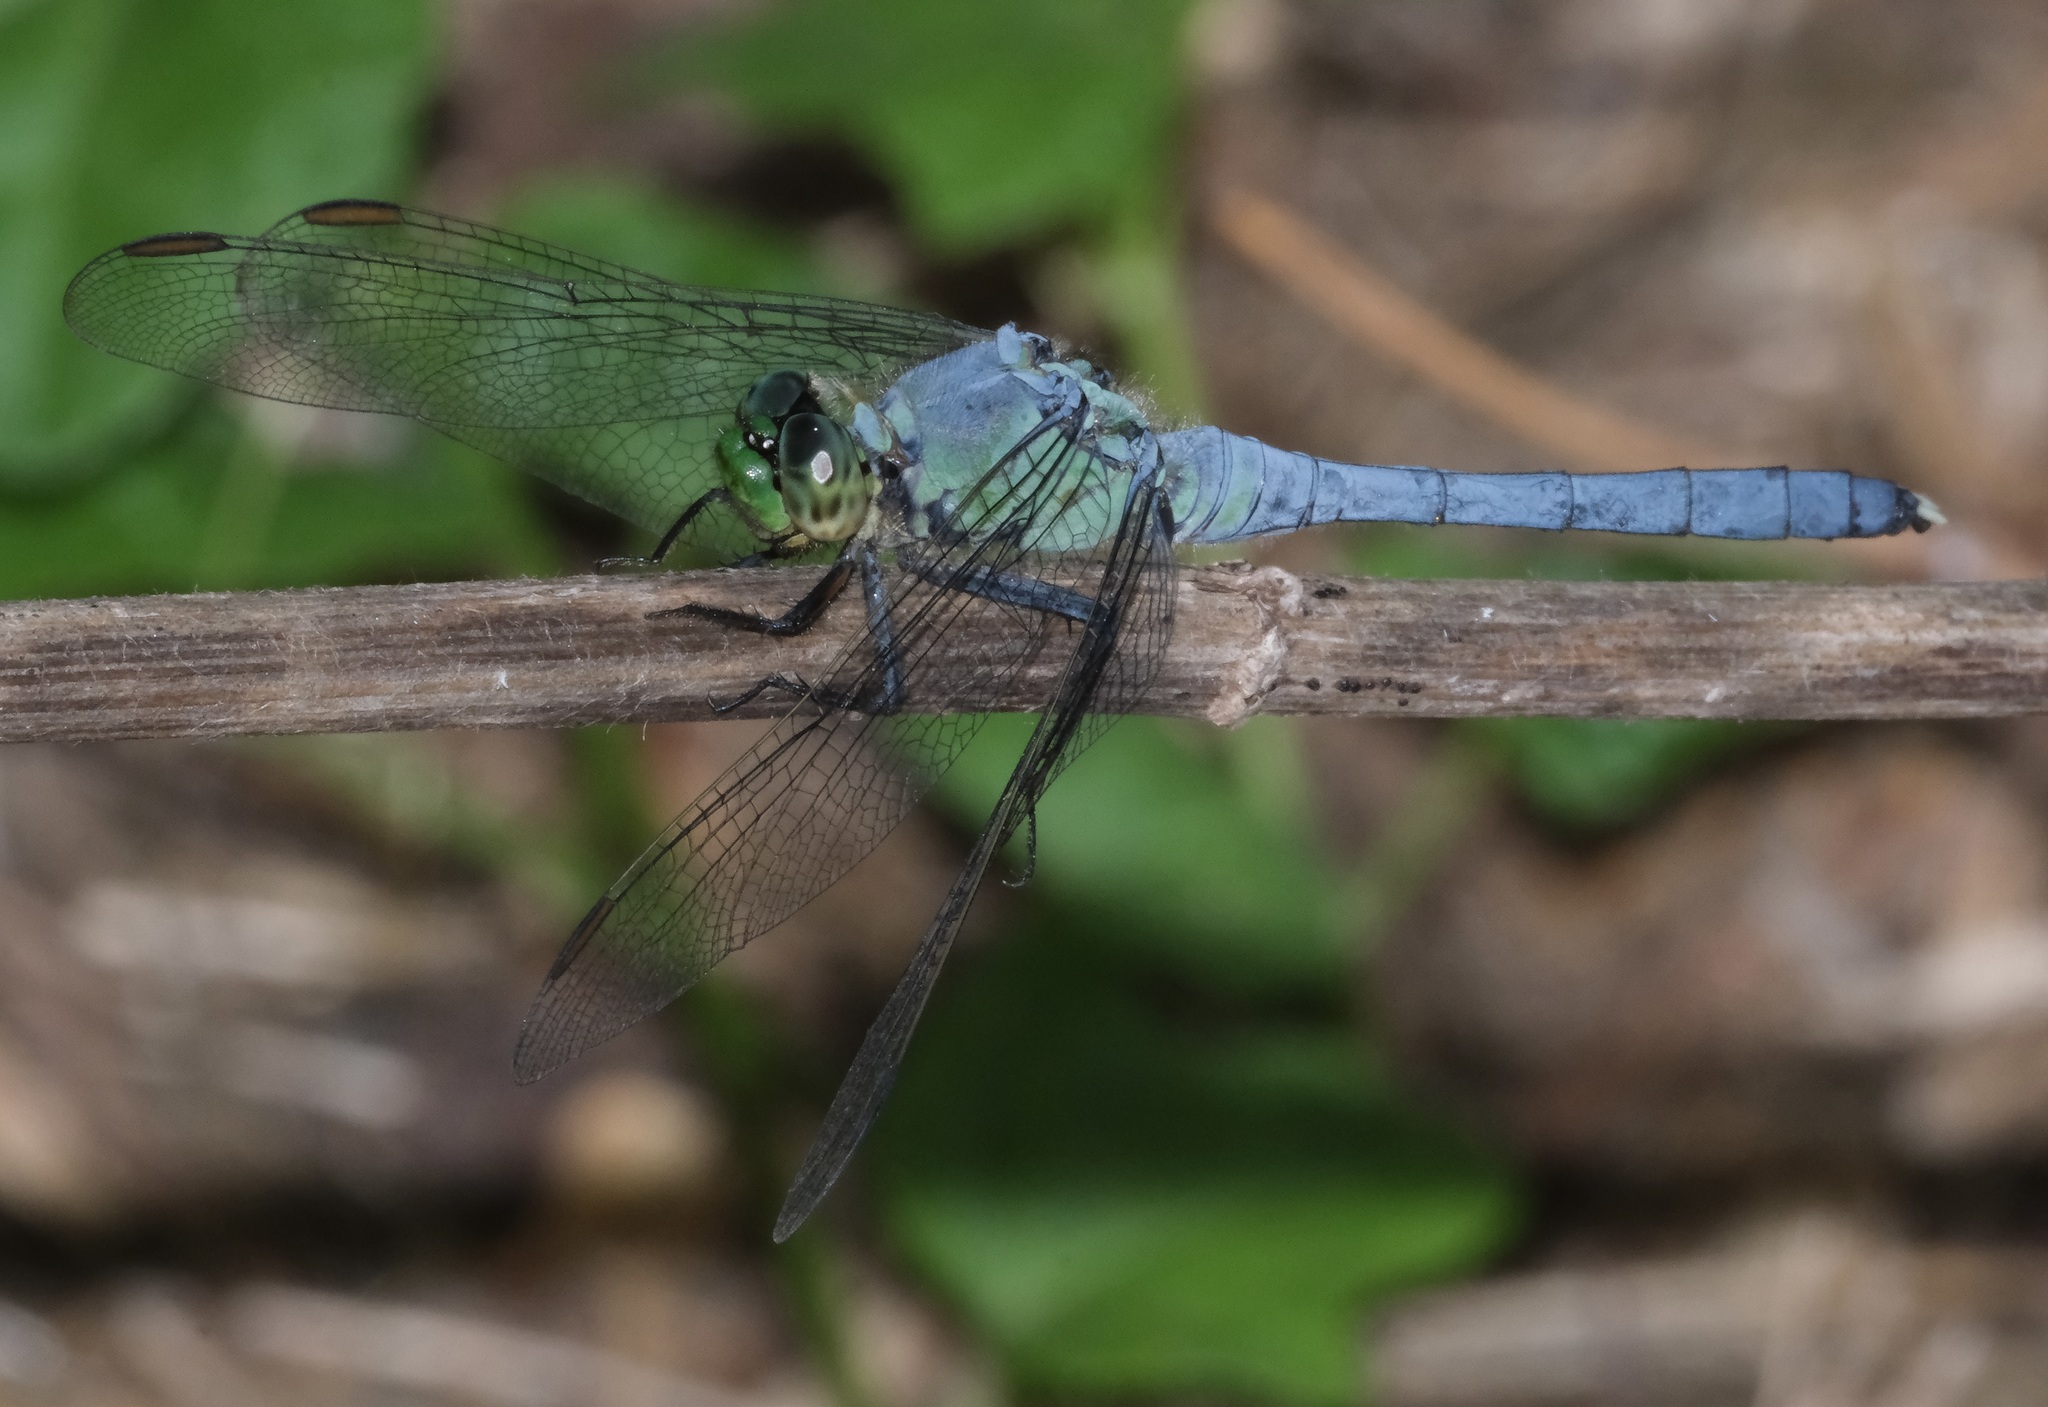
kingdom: Animalia
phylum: Arthropoda
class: Insecta
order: Odonata
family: Libellulidae
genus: Erythemis
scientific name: Erythemis simplicicollis
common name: Eastern pondhawk
